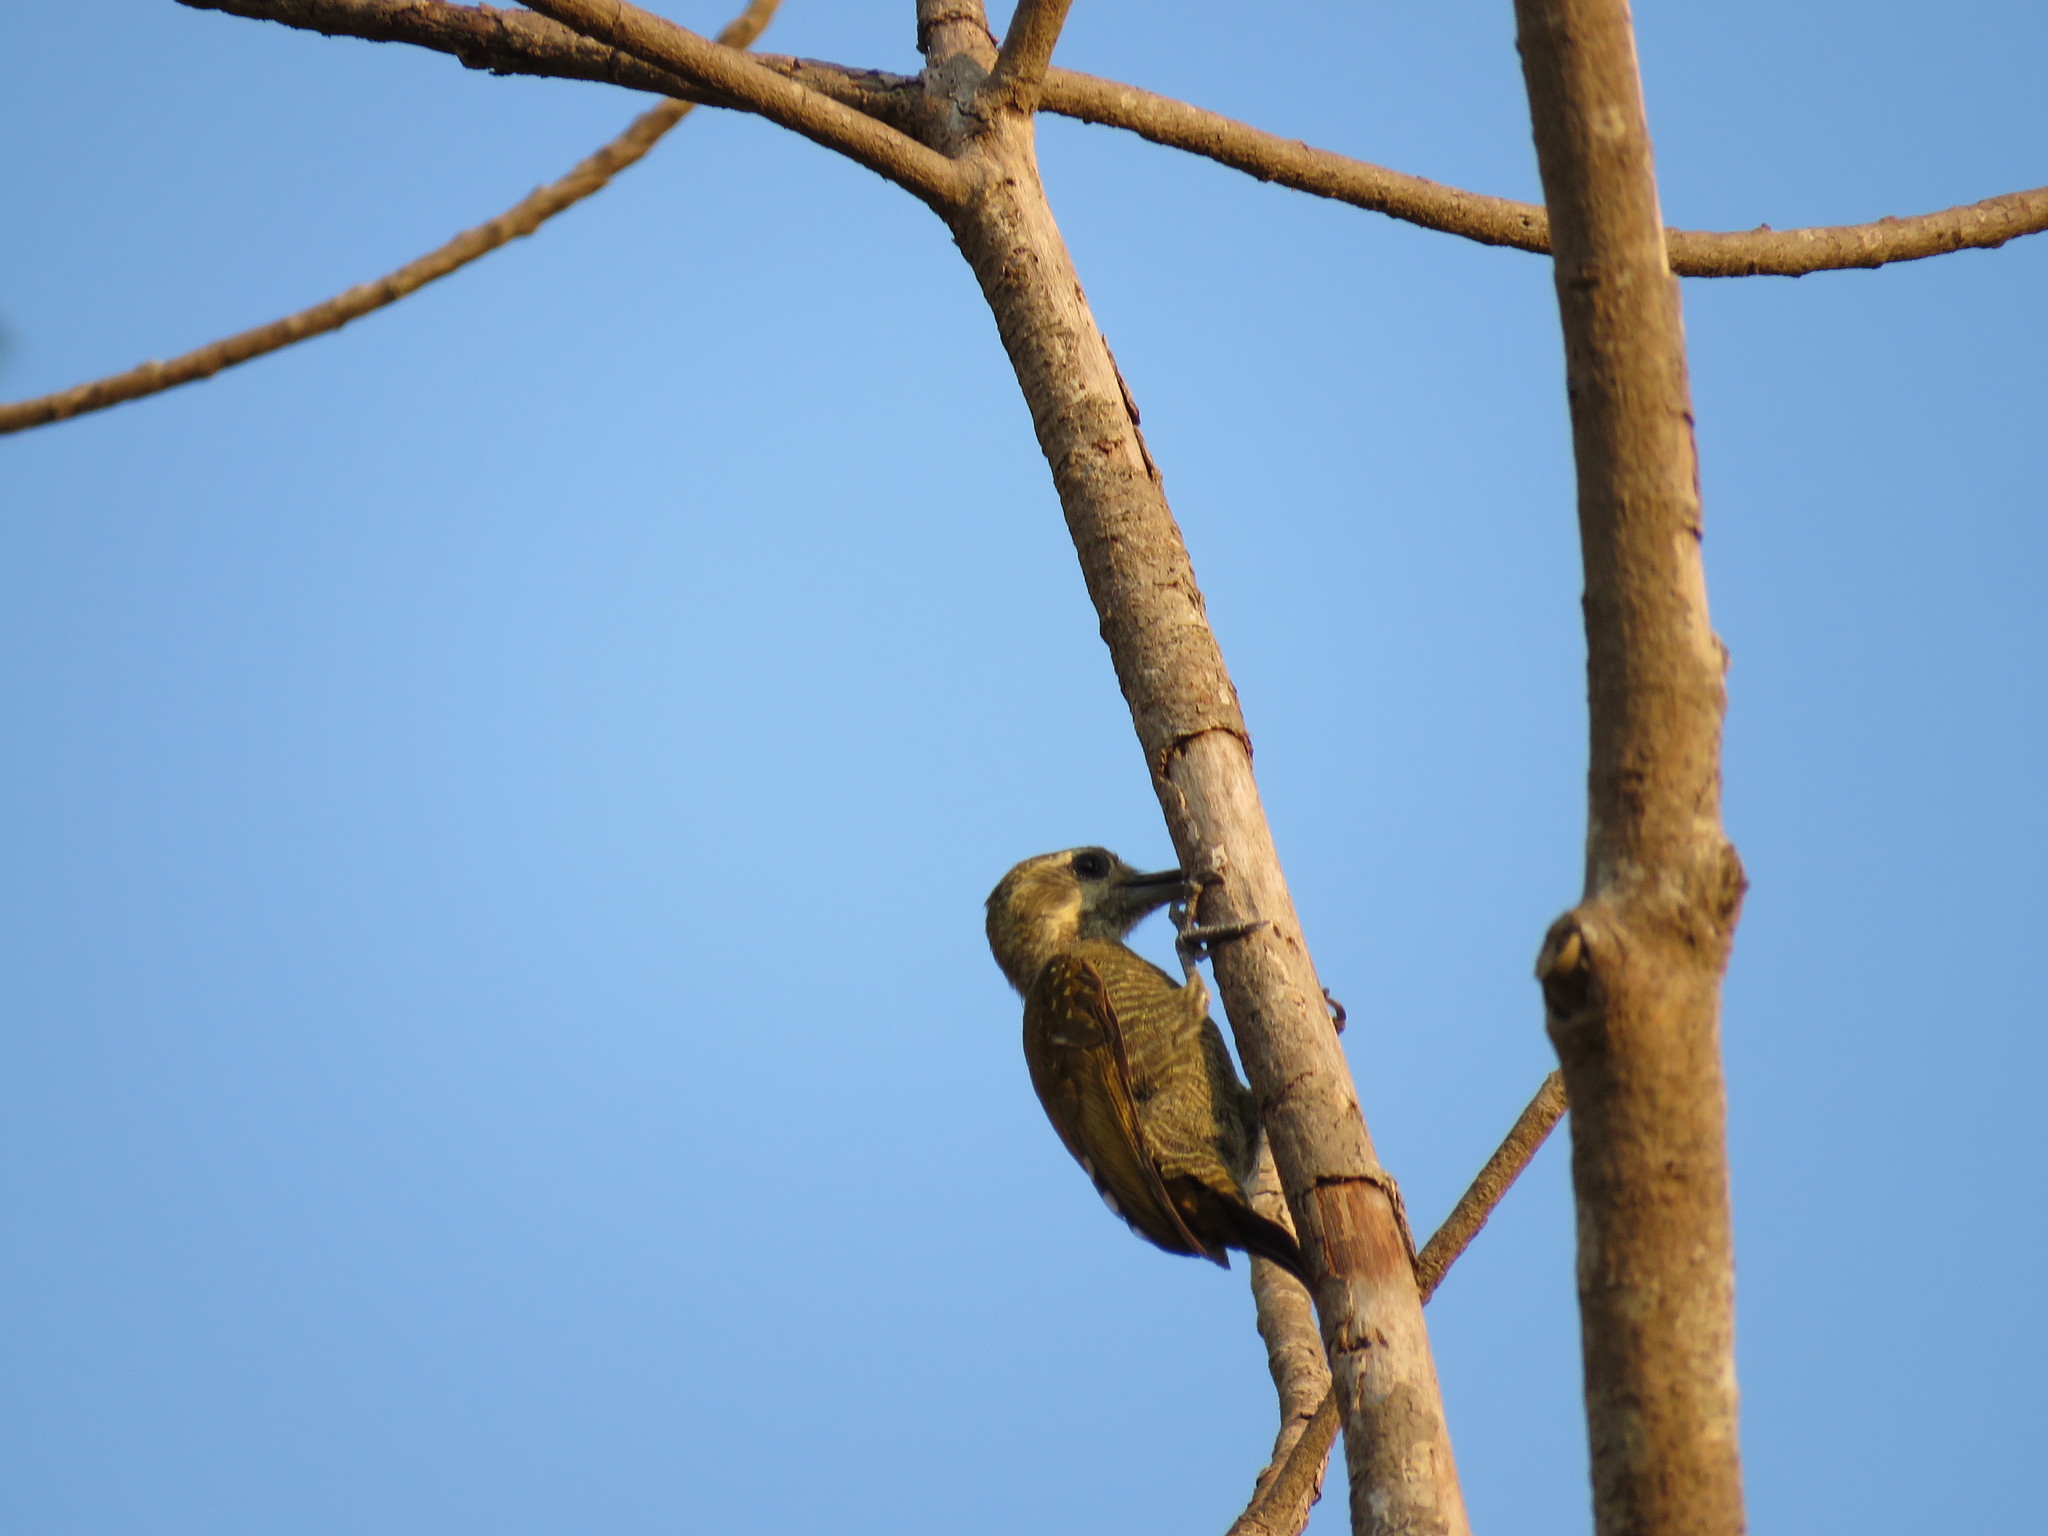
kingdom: Animalia
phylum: Chordata
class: Aves
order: Piciformes
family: Picidae
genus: Veniliornis
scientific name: Veniliornis passerinus
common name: Little woodpecker
